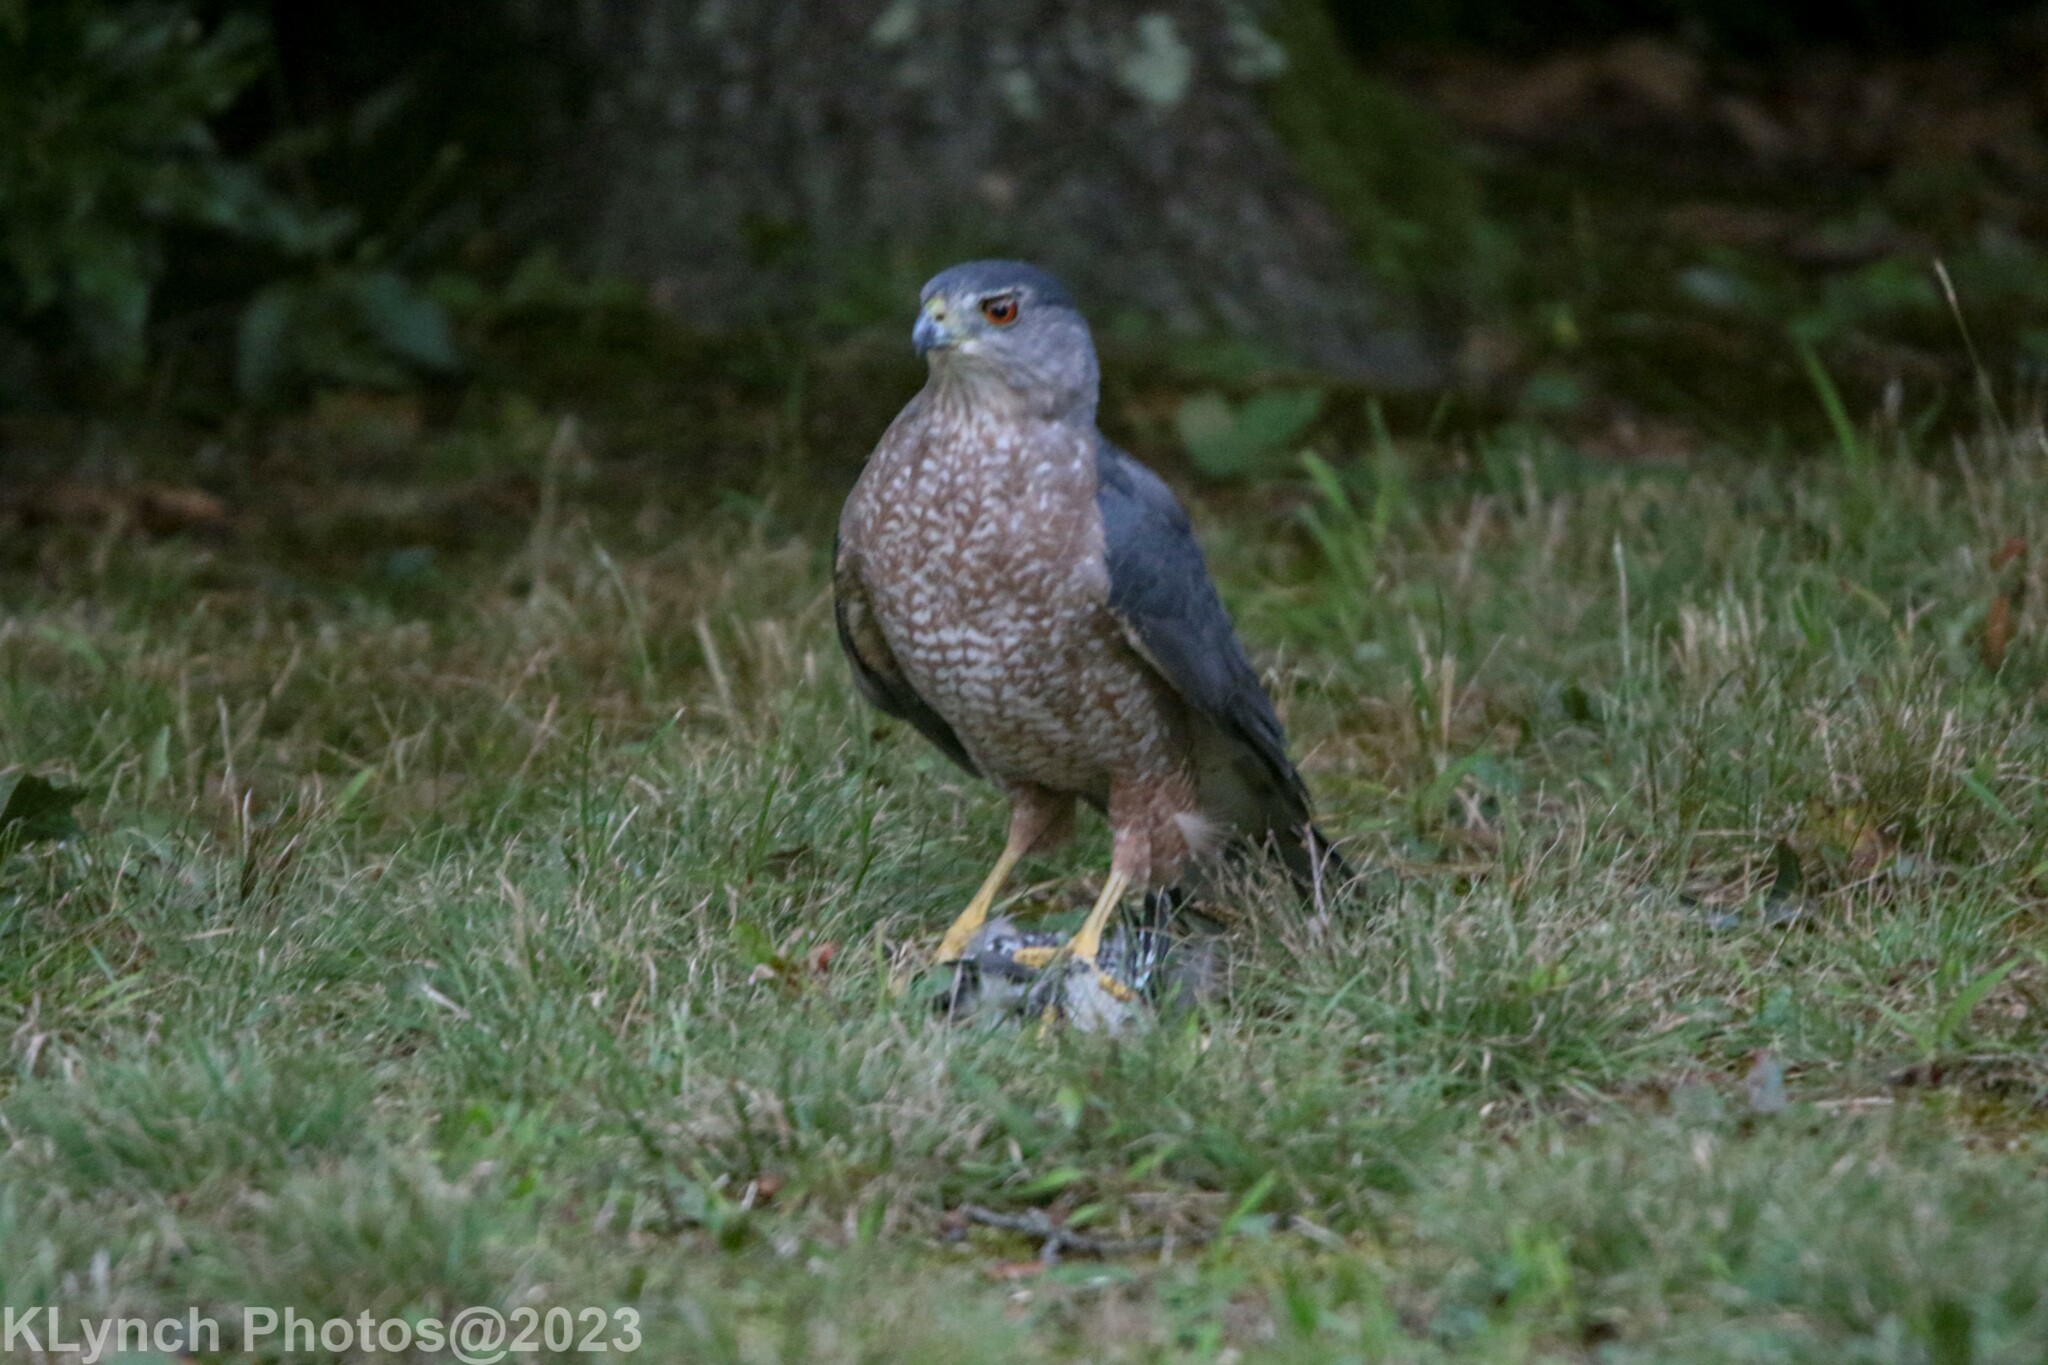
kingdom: Animalia
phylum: Chordata
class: Aves
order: Accipitriformes
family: Accipitridae
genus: Accipiter
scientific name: Accipiter cooperii
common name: Cooper's hawk
